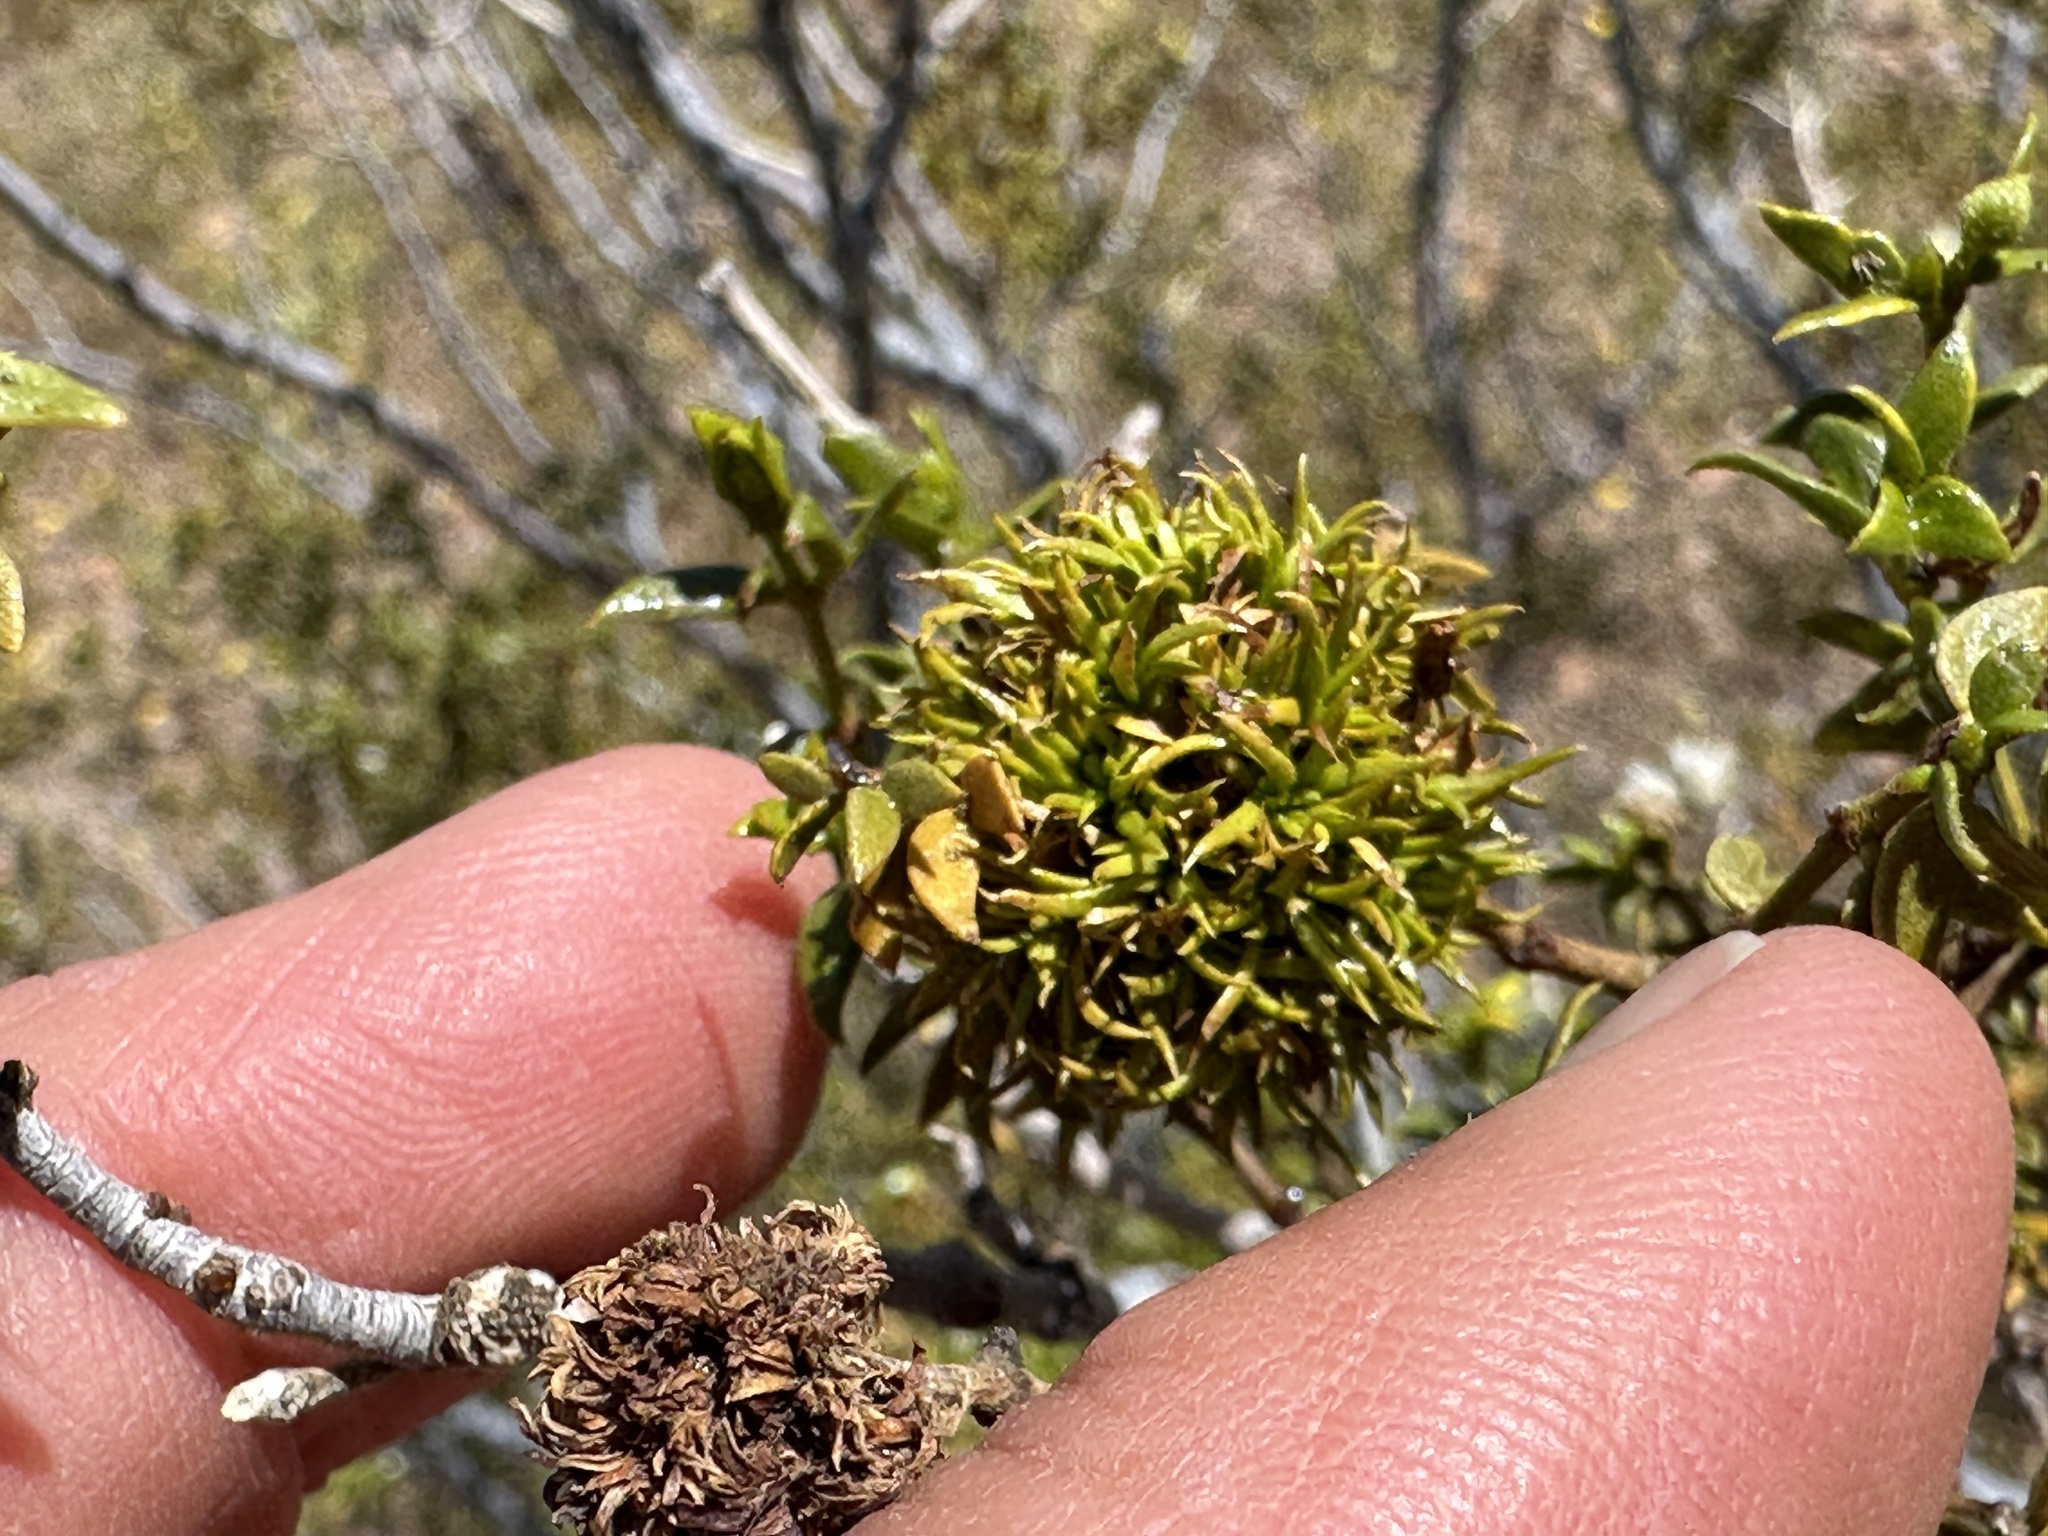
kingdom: Animalia
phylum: Arthropoda
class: Insecta
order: Diptera
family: Cecidomyiidae
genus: Asphondylia
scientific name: Asphondylia auripila
